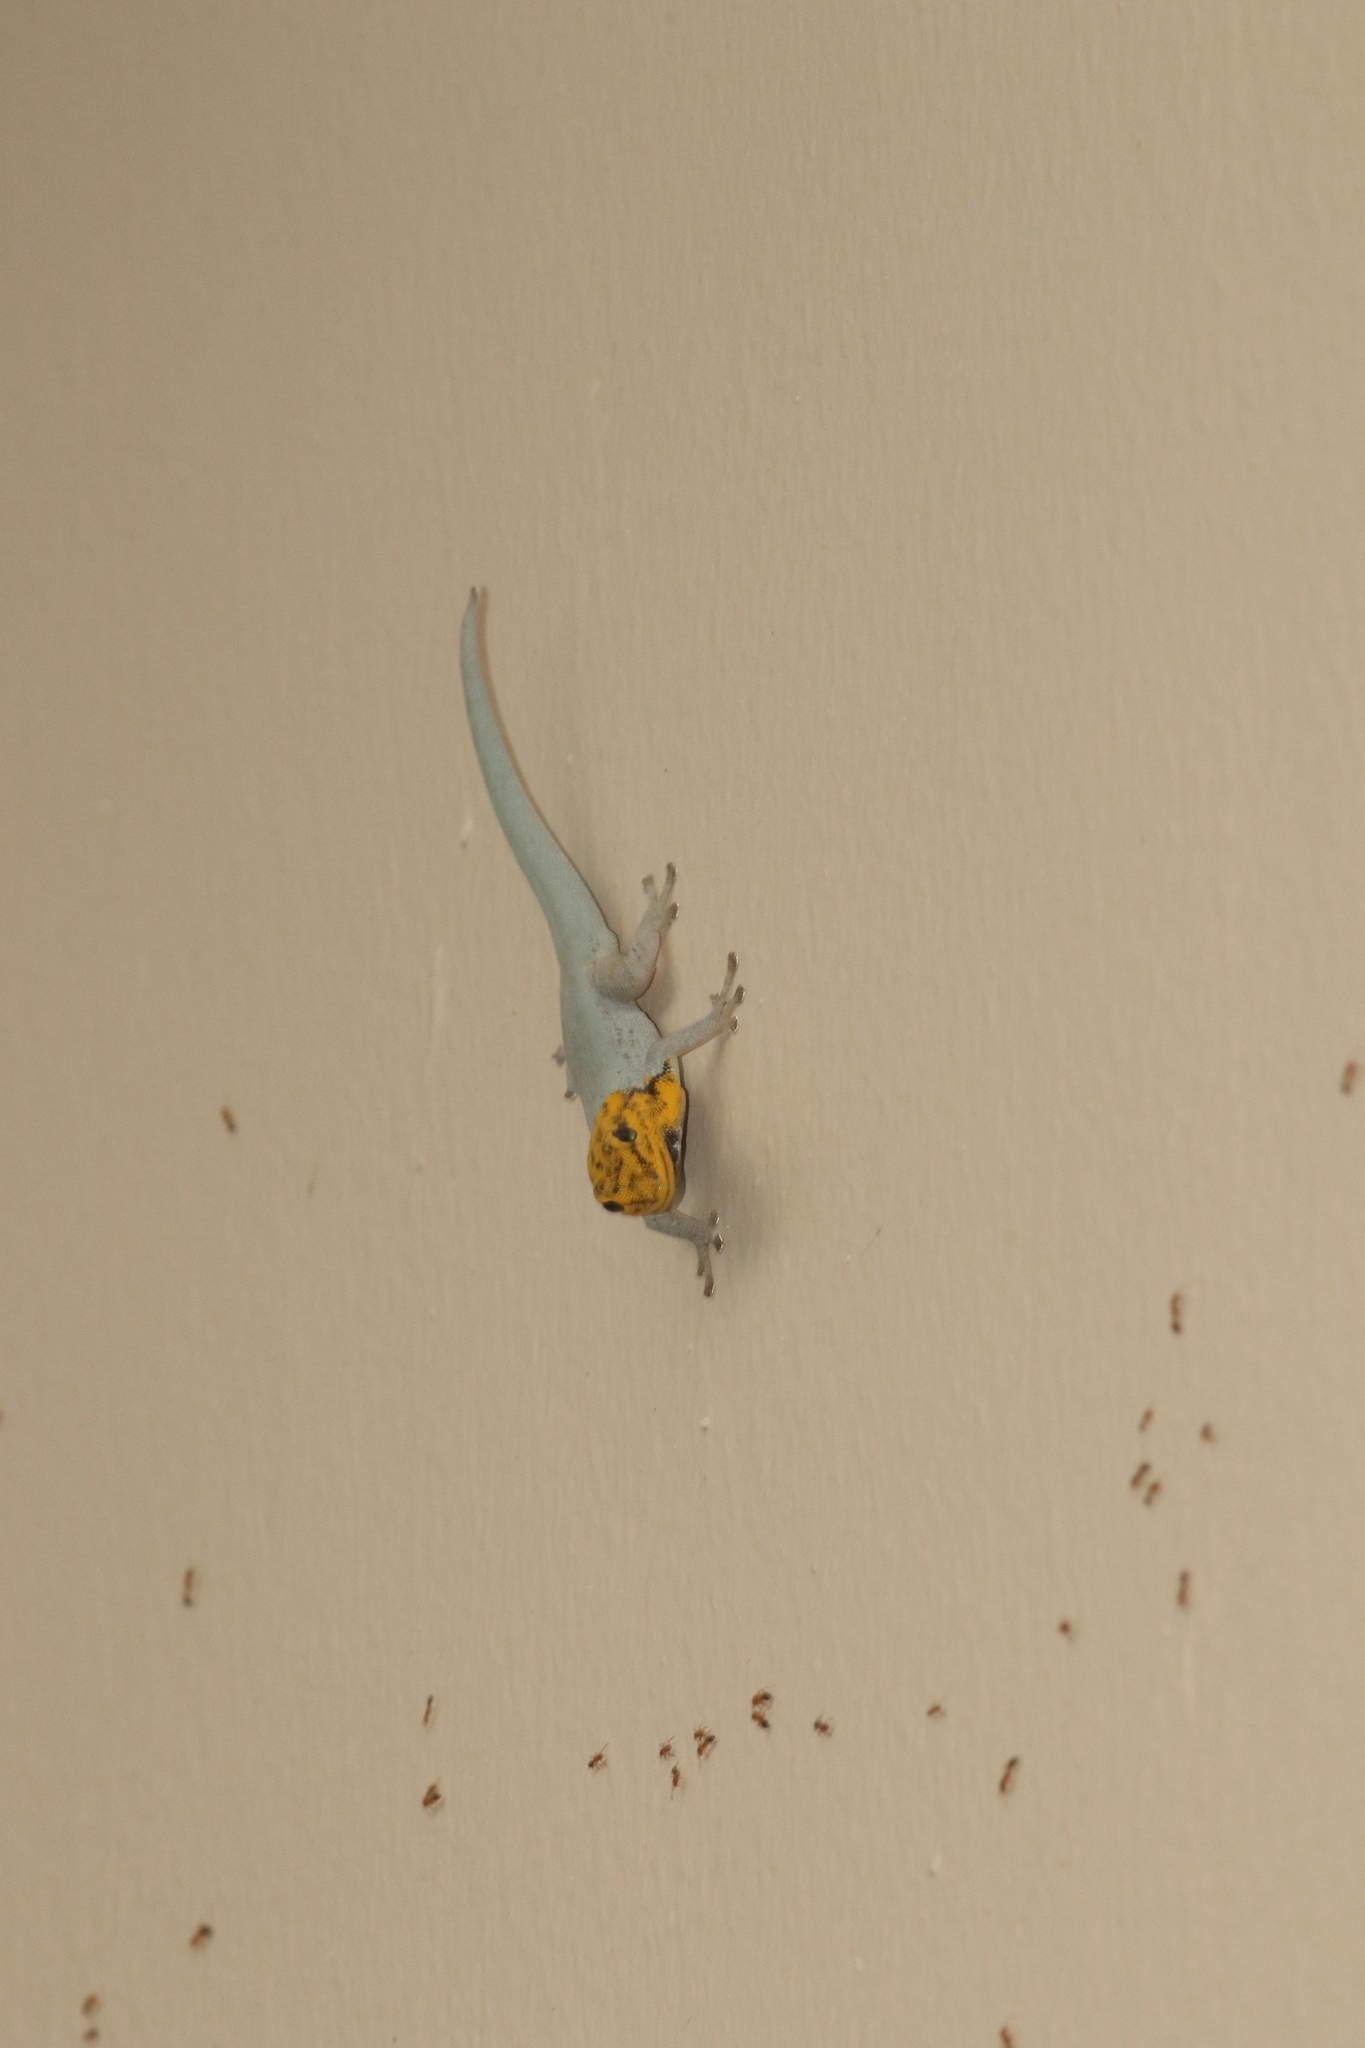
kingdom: Animalia
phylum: Chordata
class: Squamata
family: Gekkonidae
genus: Lygodactylus
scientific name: Lygodactylus picturatus
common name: Painted dwarf gecko
